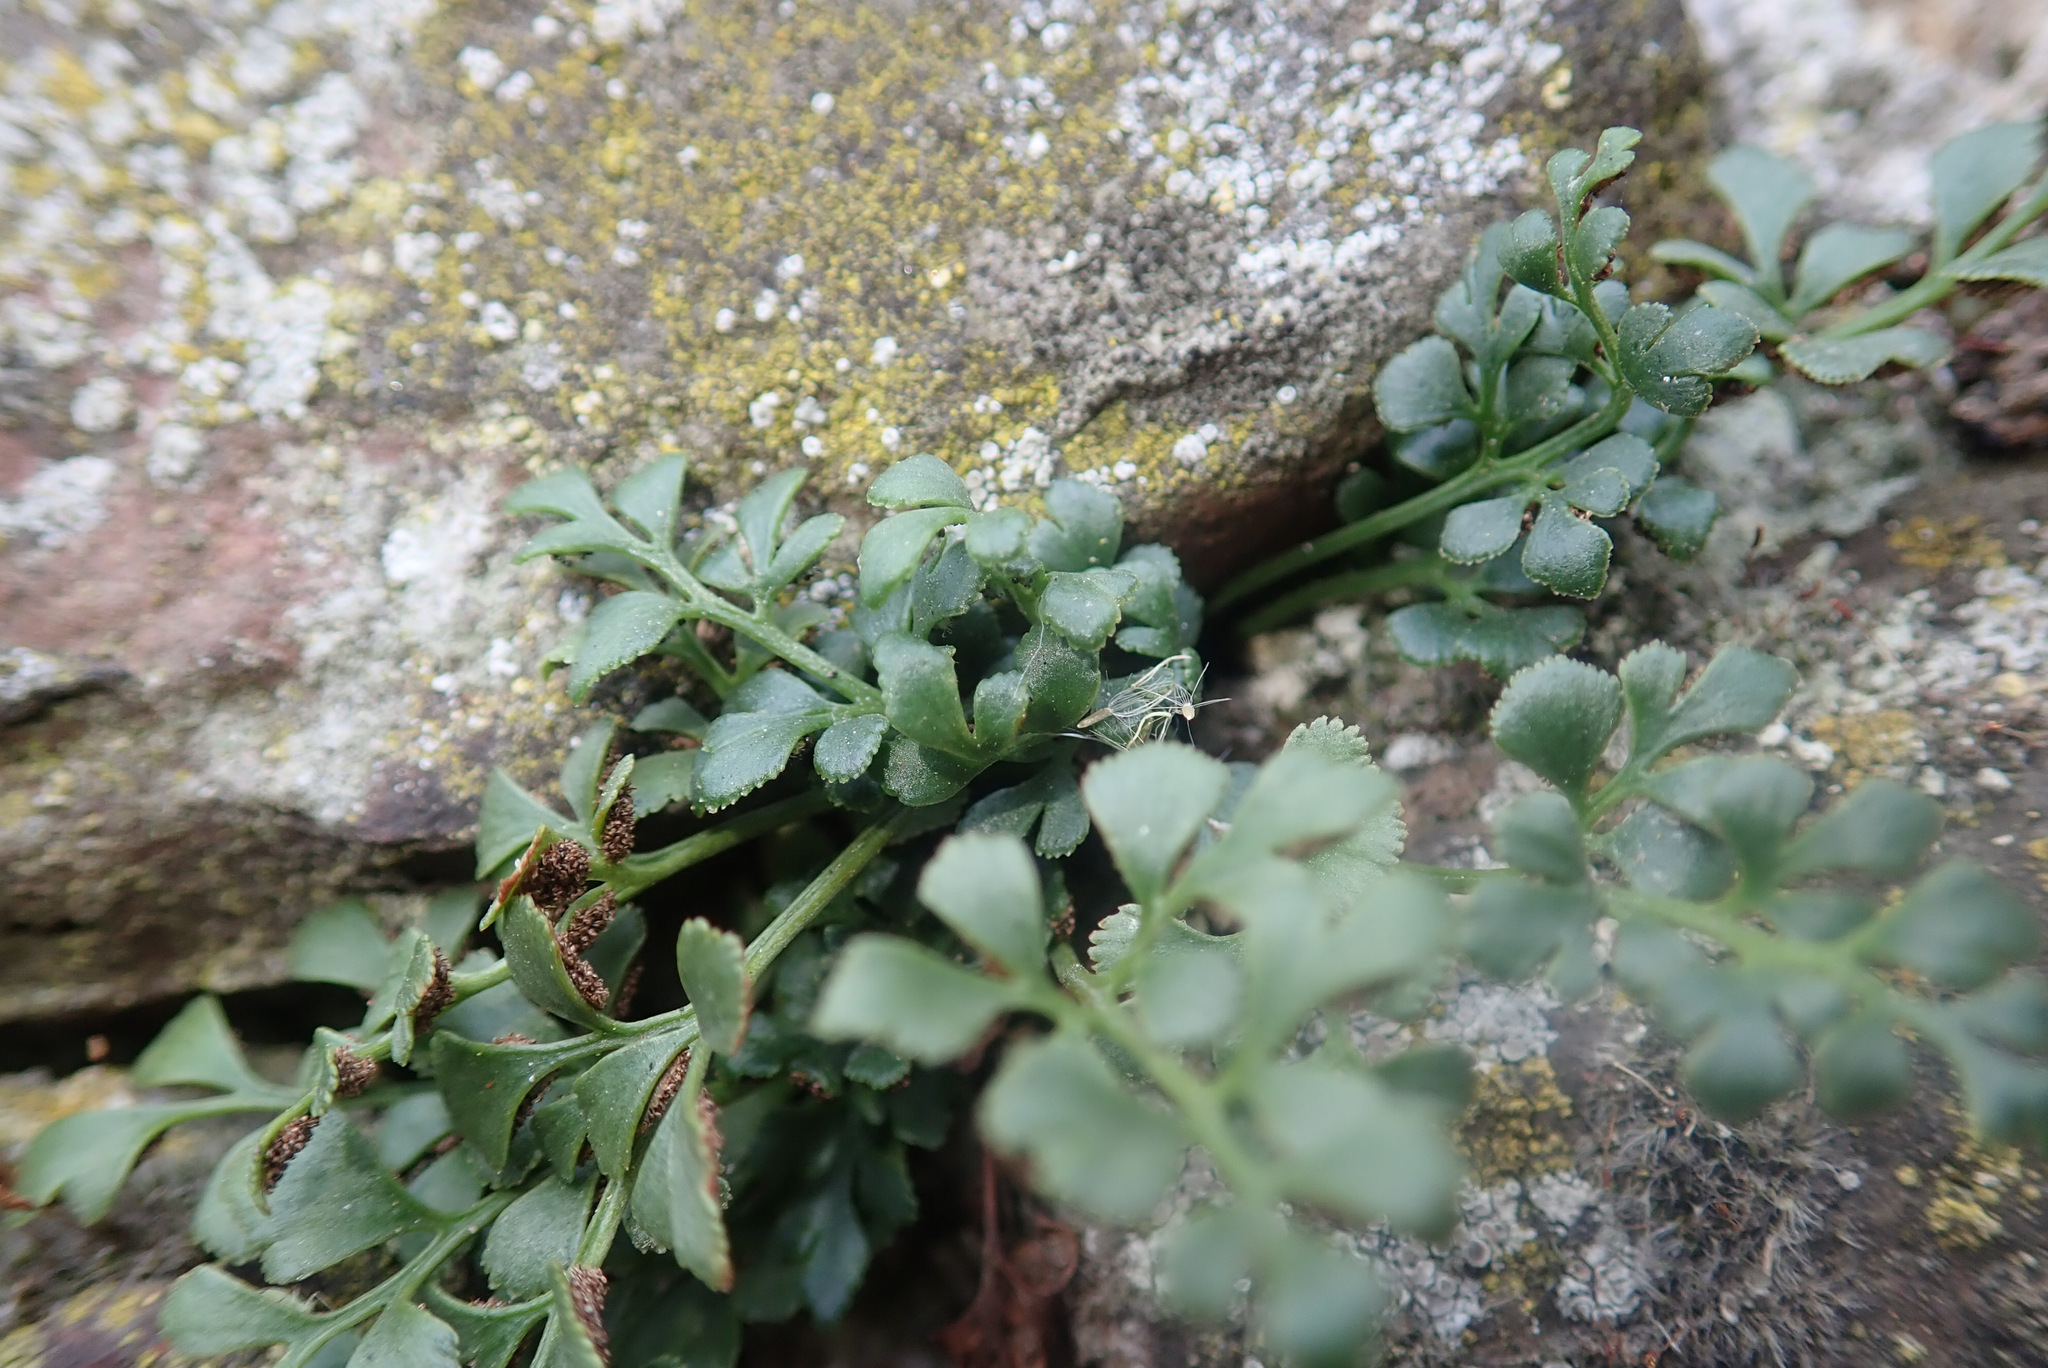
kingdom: Plantae
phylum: Tracheophyta
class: Polypodiopsida
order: Polypodiales
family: Aspleniaceae
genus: Asplenium
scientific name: Asplenium ruta-muraria
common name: Wall-rue
